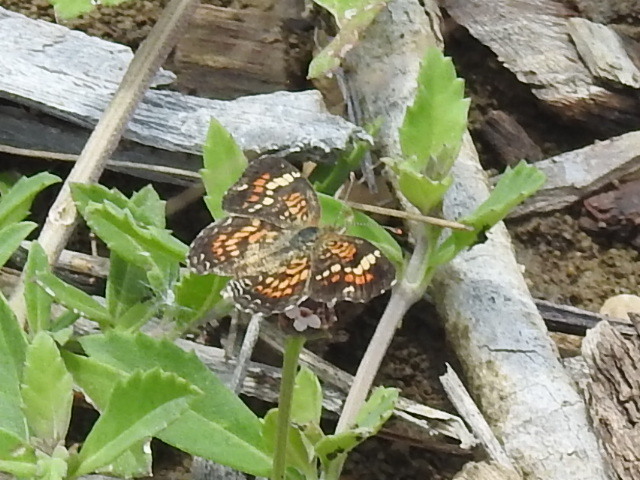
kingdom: Animalia
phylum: Arthropoda
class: Insecta
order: Lepidoptera
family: Nymphalidae
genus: Phyciodes
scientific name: Phyciodes phaon
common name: Phaon crescent
